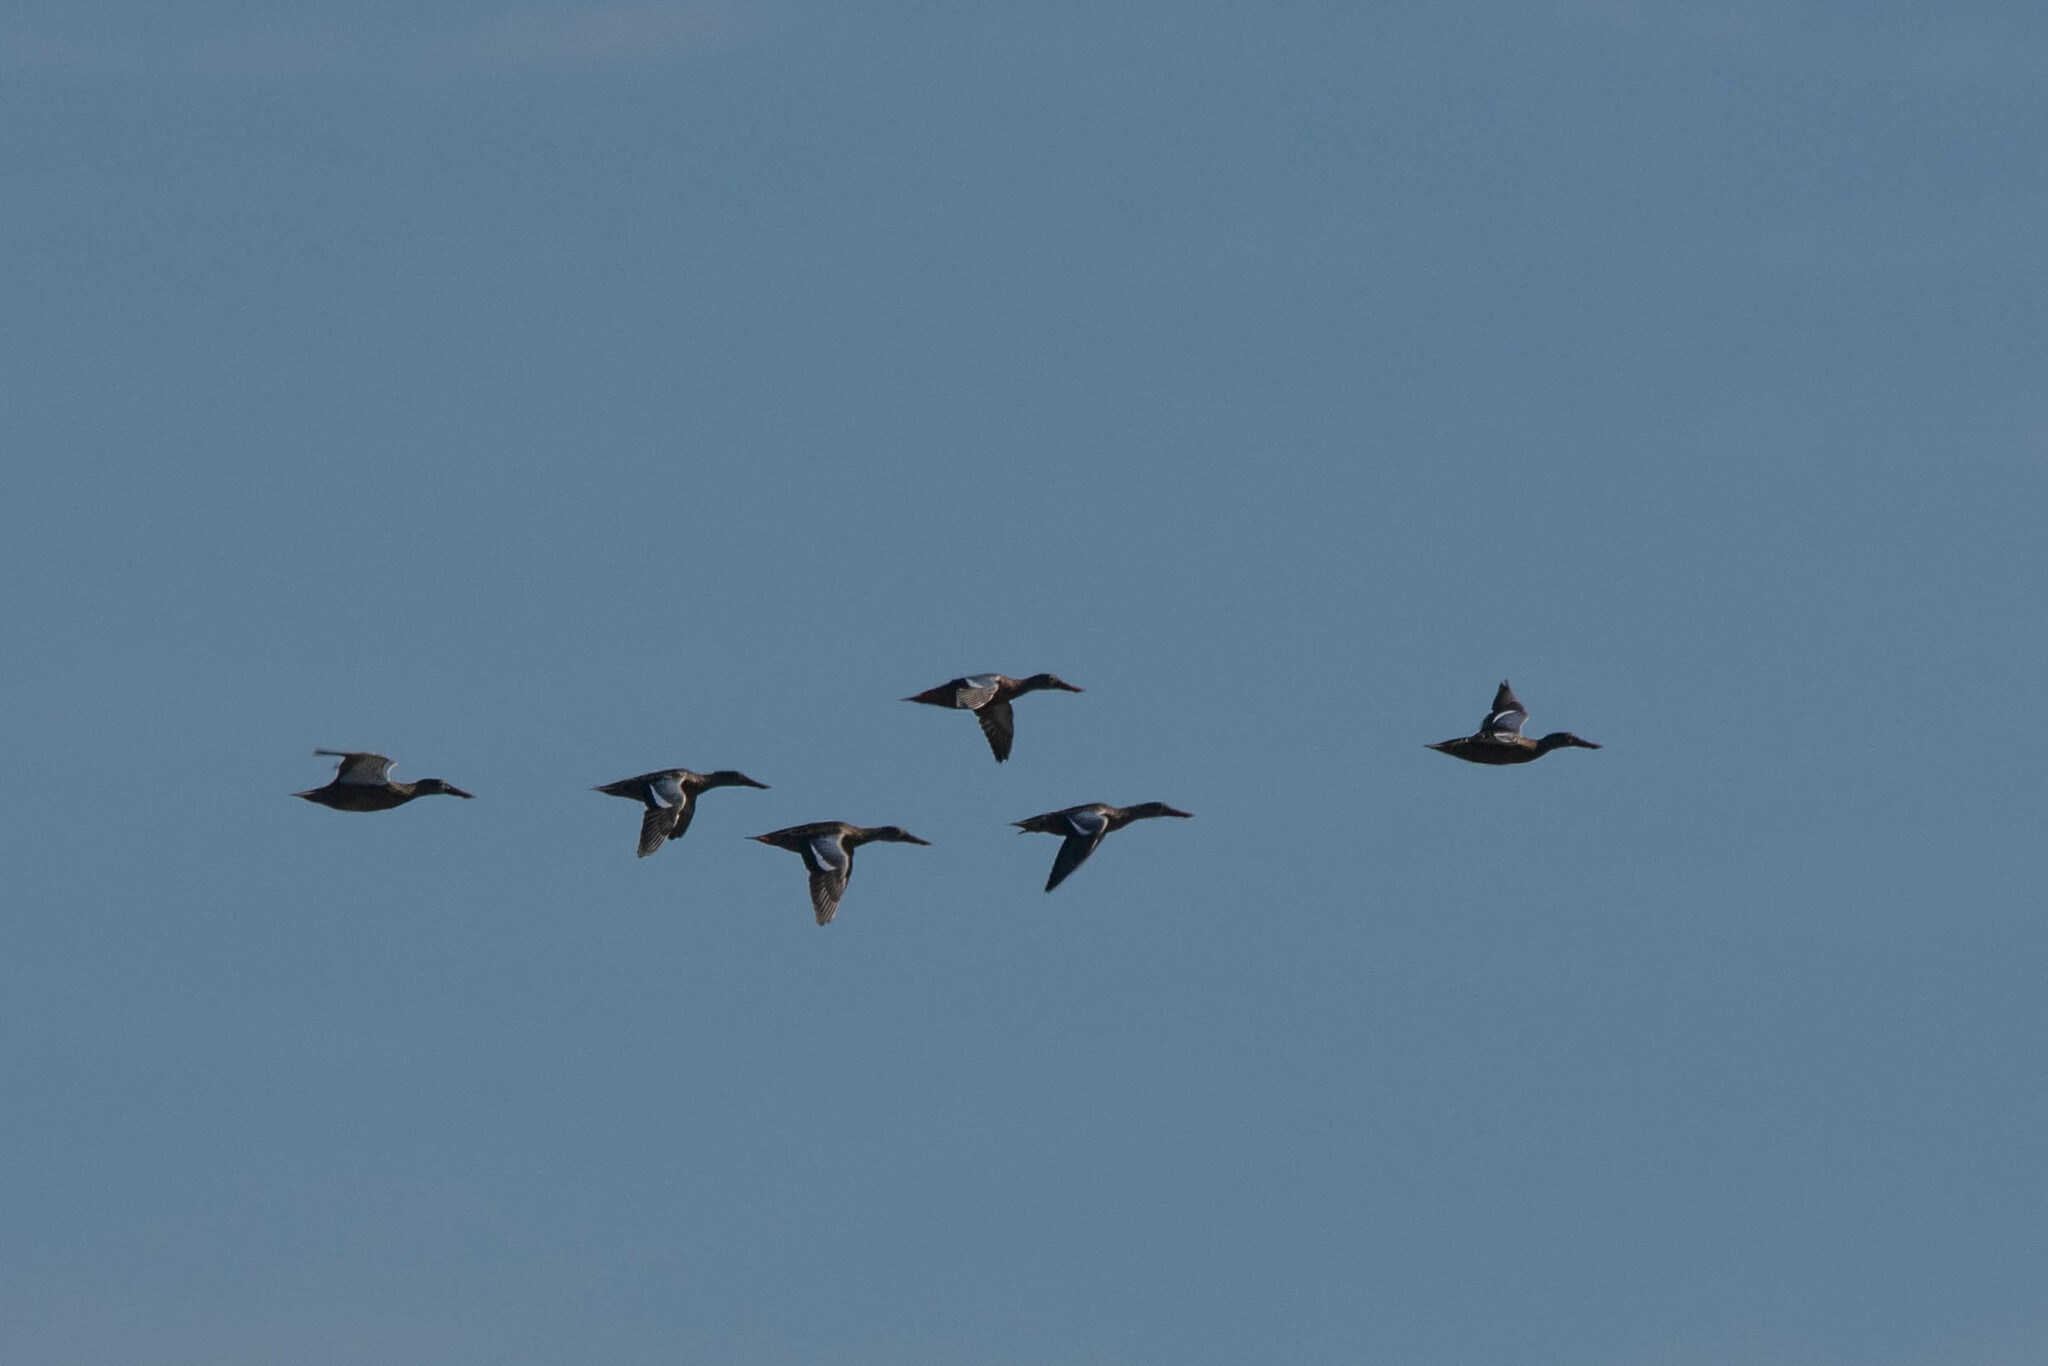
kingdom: Animalia
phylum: Chordata
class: Aves
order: Anseriformes
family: Anatidae
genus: Spatula
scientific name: Spatula clypeata
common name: Northern shoveler
